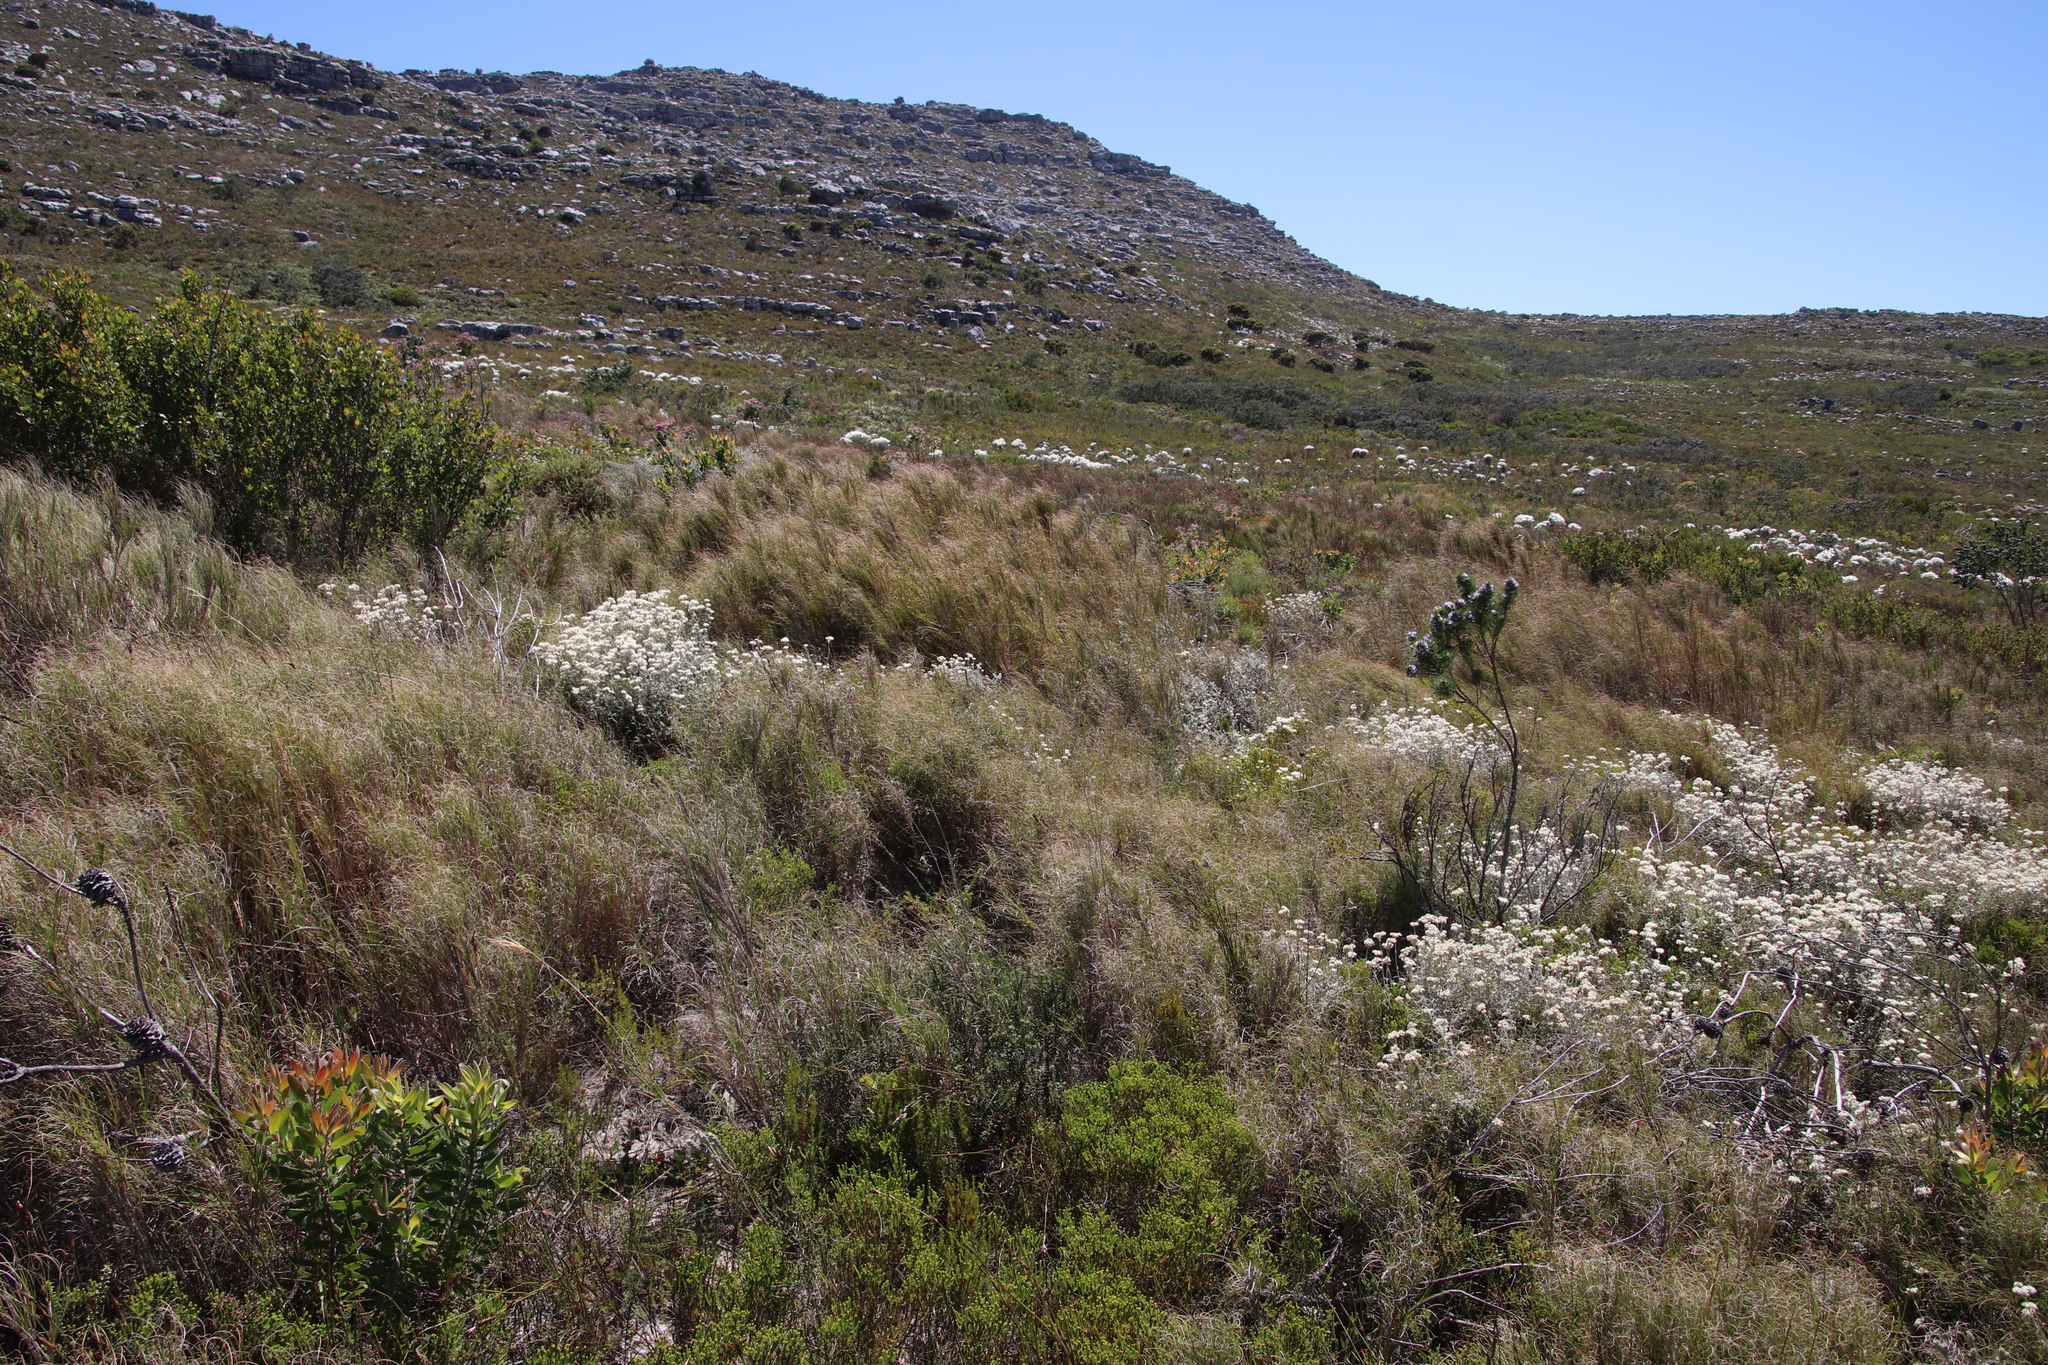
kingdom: Plantae
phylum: Tracheophyta
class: Liliopsida
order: Poales
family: Poaceae
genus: Pseudopentameris
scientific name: Pseudopentameris macrantha
